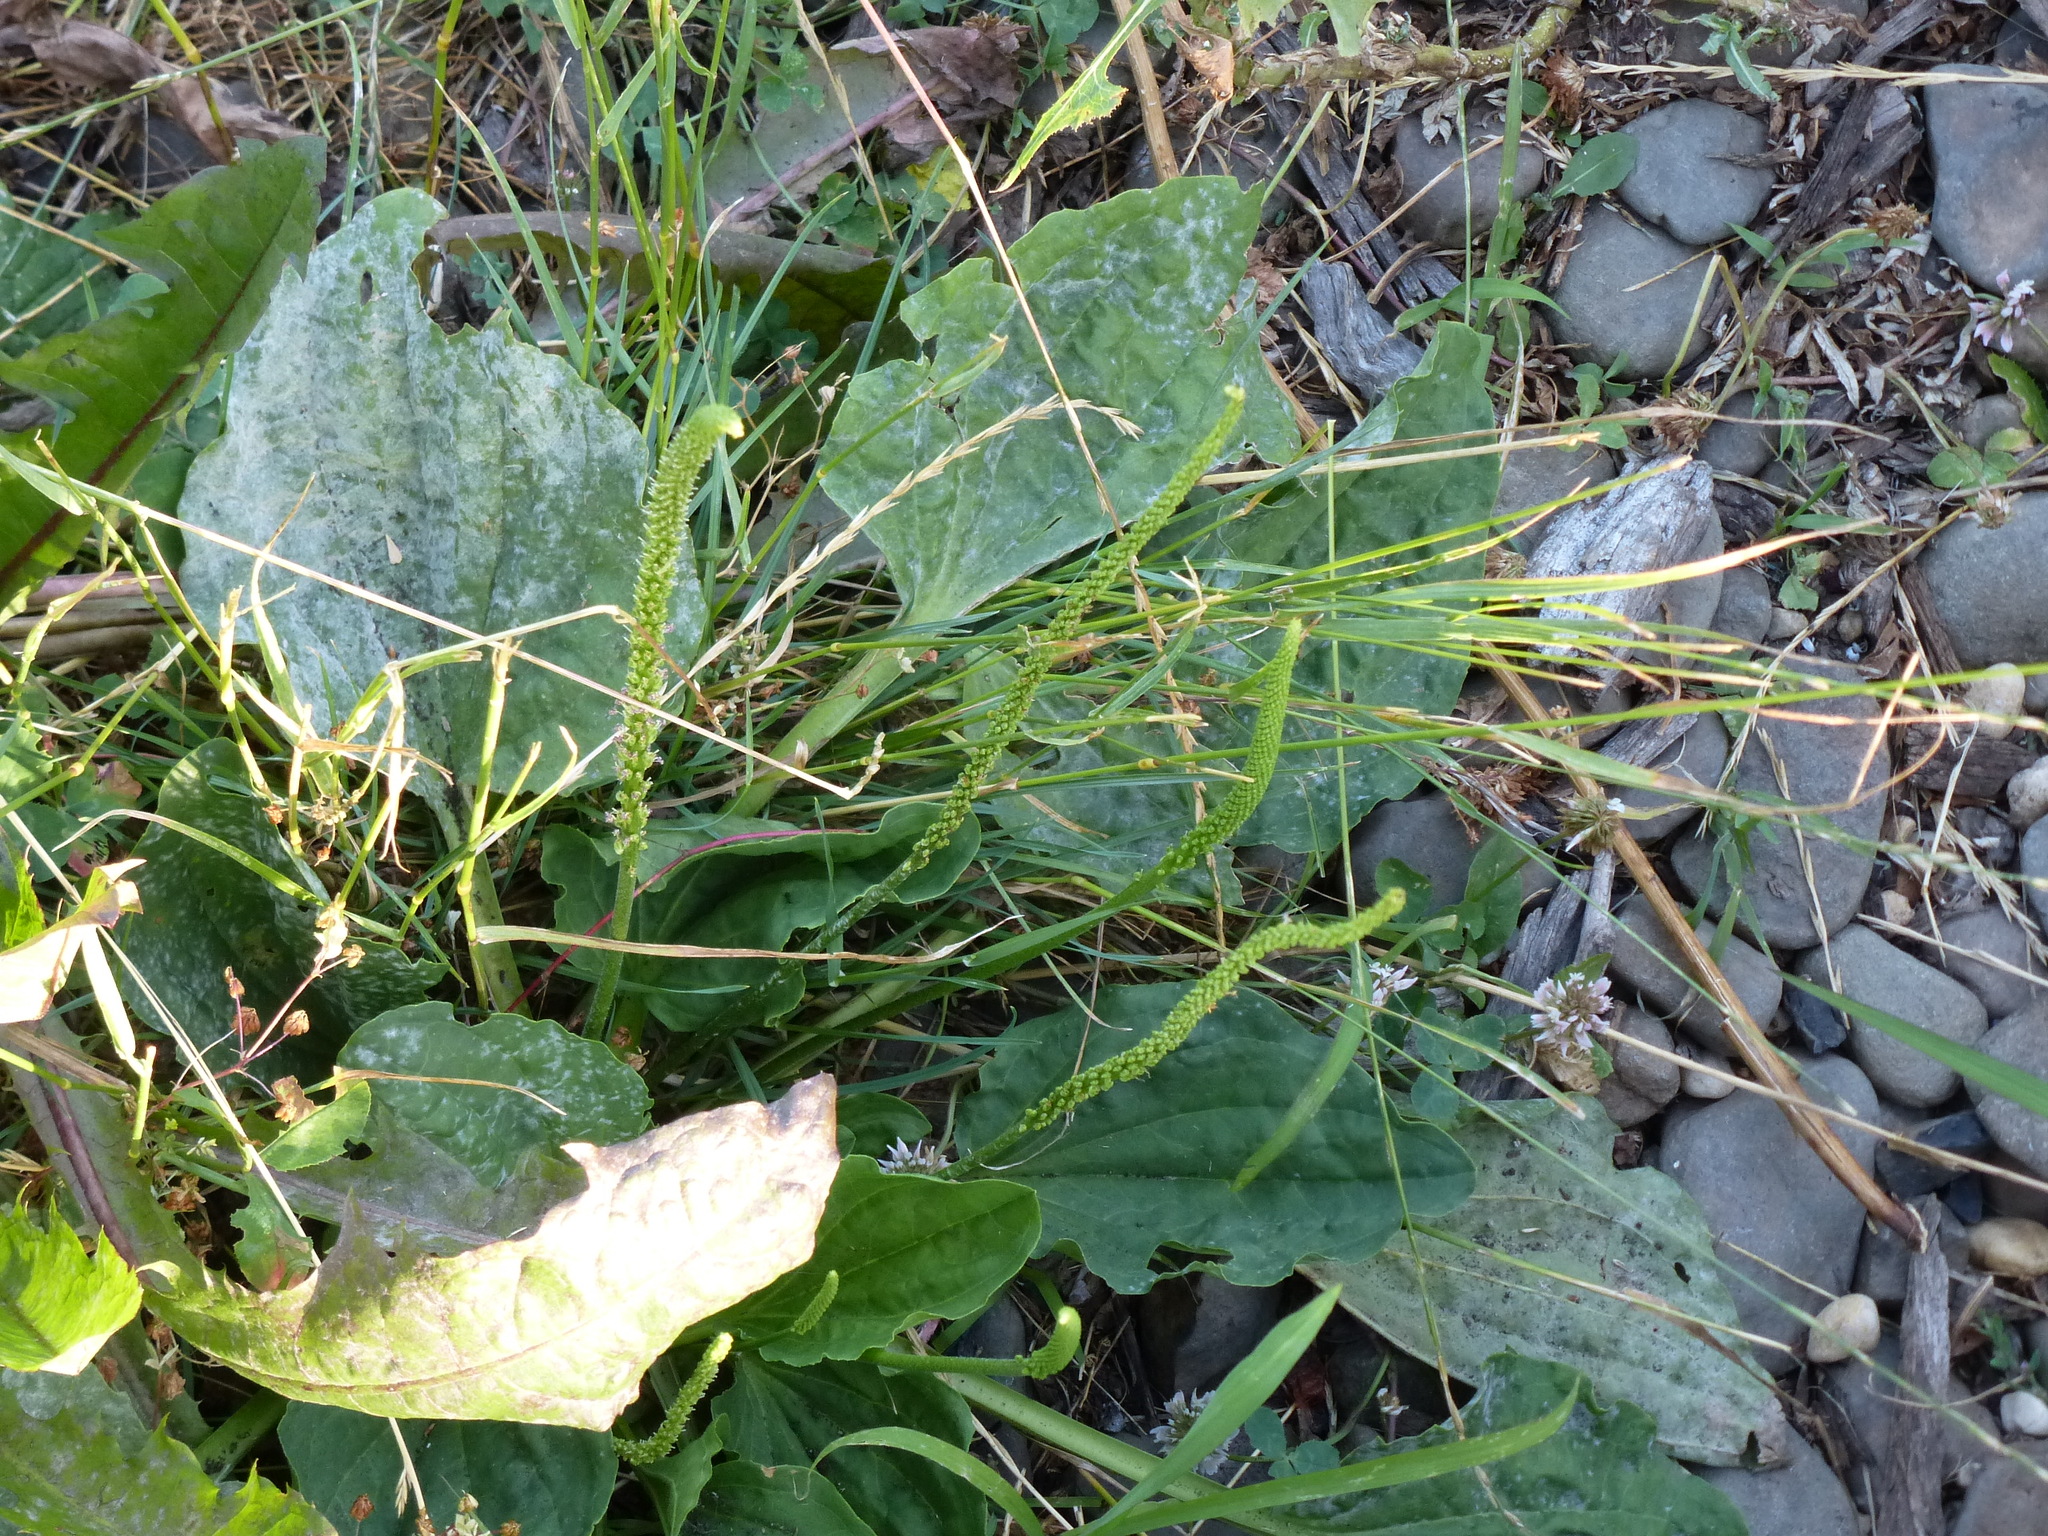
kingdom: Plantae
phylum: Tracheophyta
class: Magnoliopsida
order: Lamiales
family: Plantaginaceae
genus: Plantago
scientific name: Plantago major
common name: Common plantain
